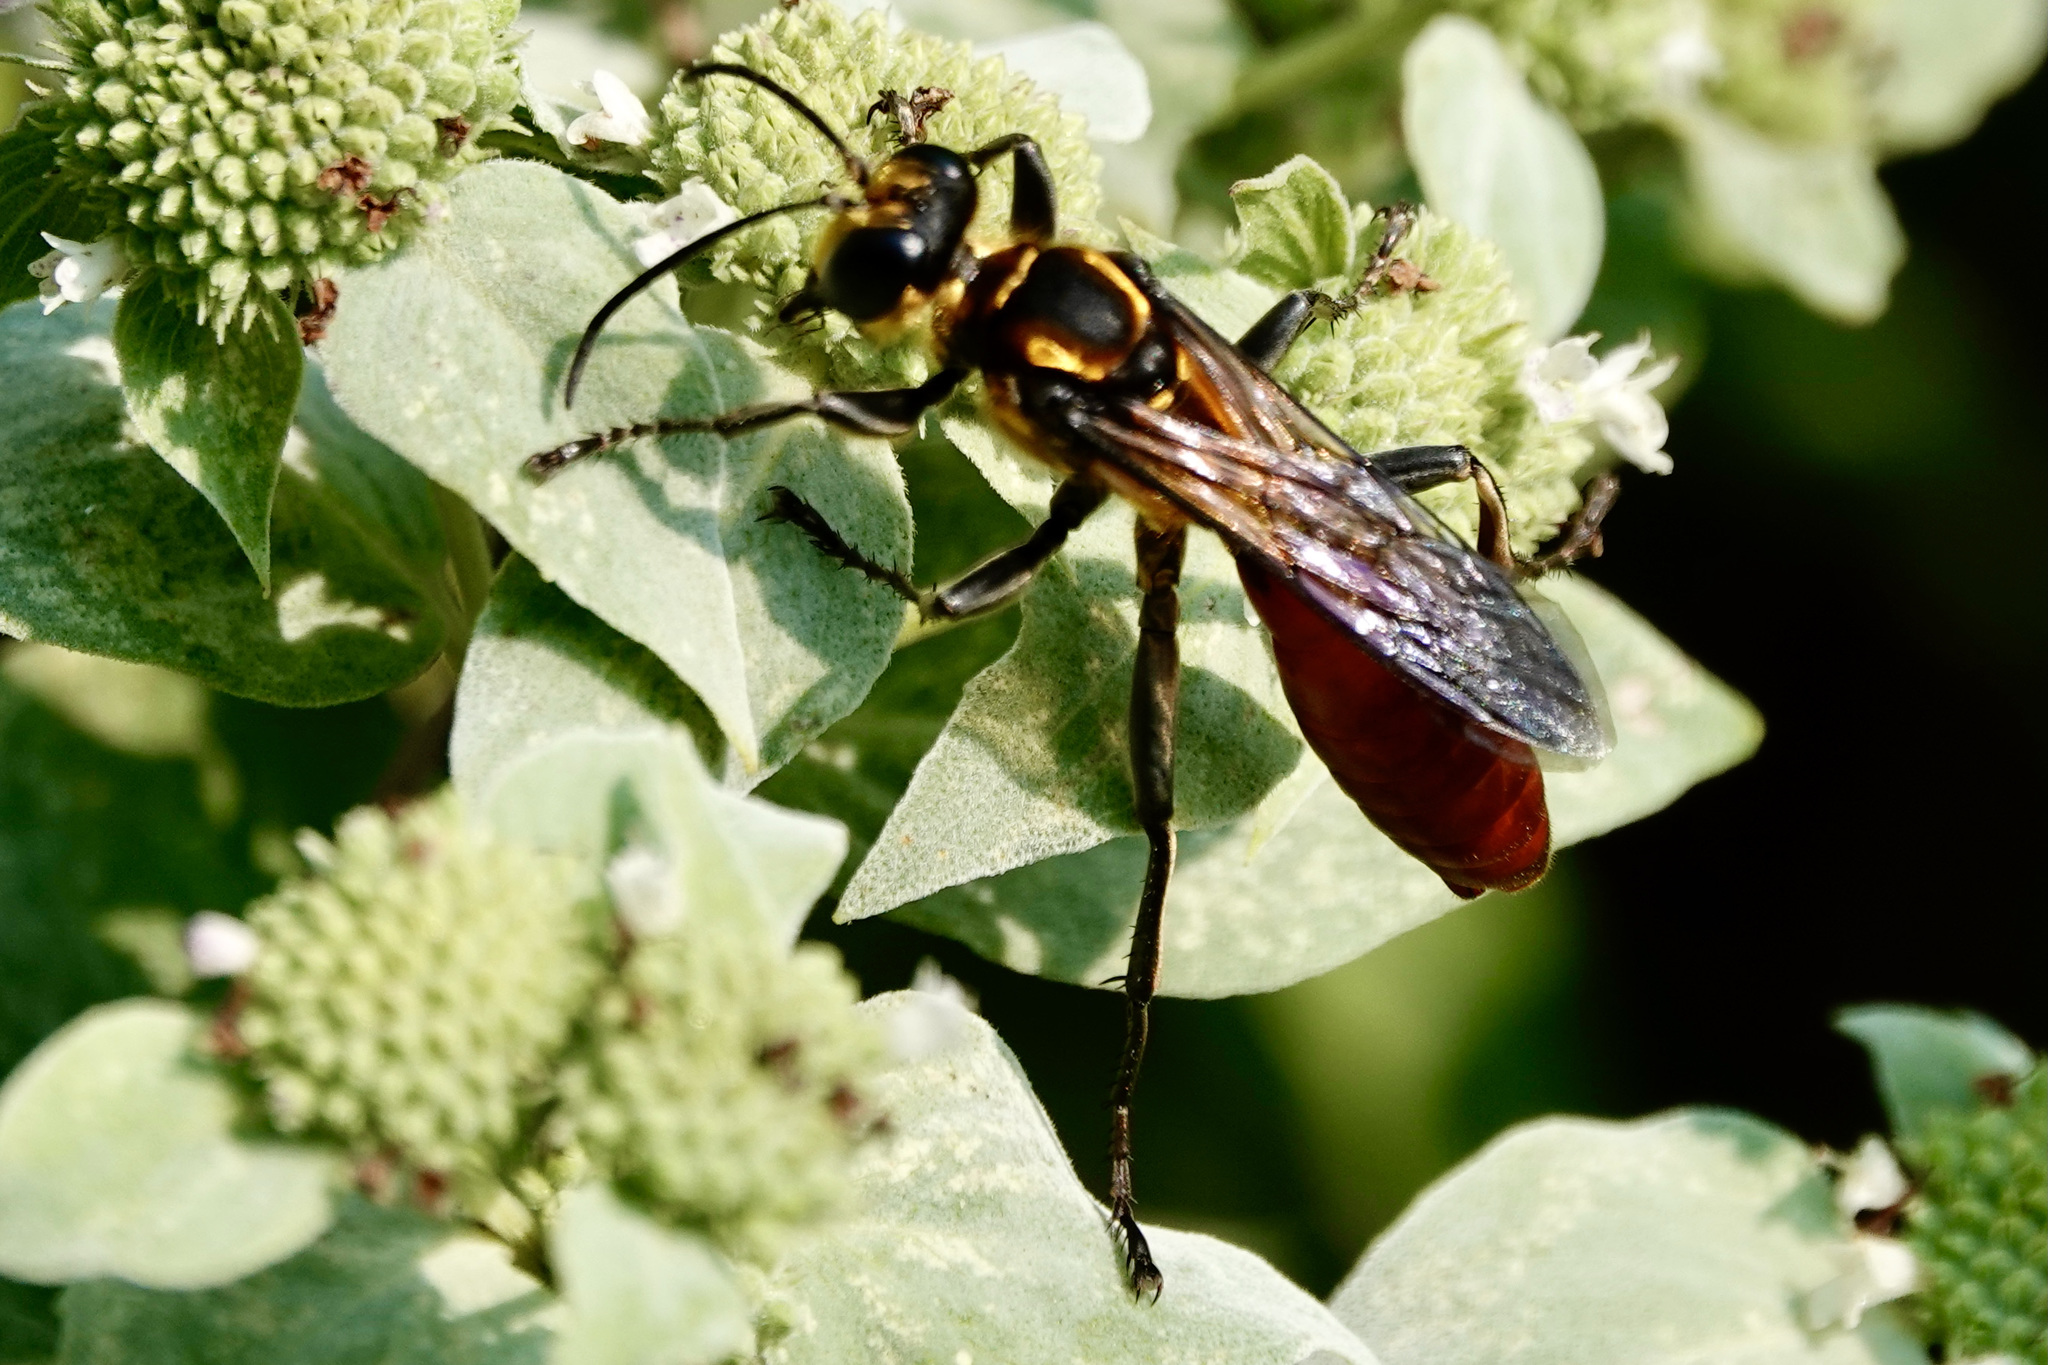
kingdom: Animalia
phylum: Arthropoda
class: Insecta
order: Hymenoptera
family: Sphecidae
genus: Sphex
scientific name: Sphex habenus
